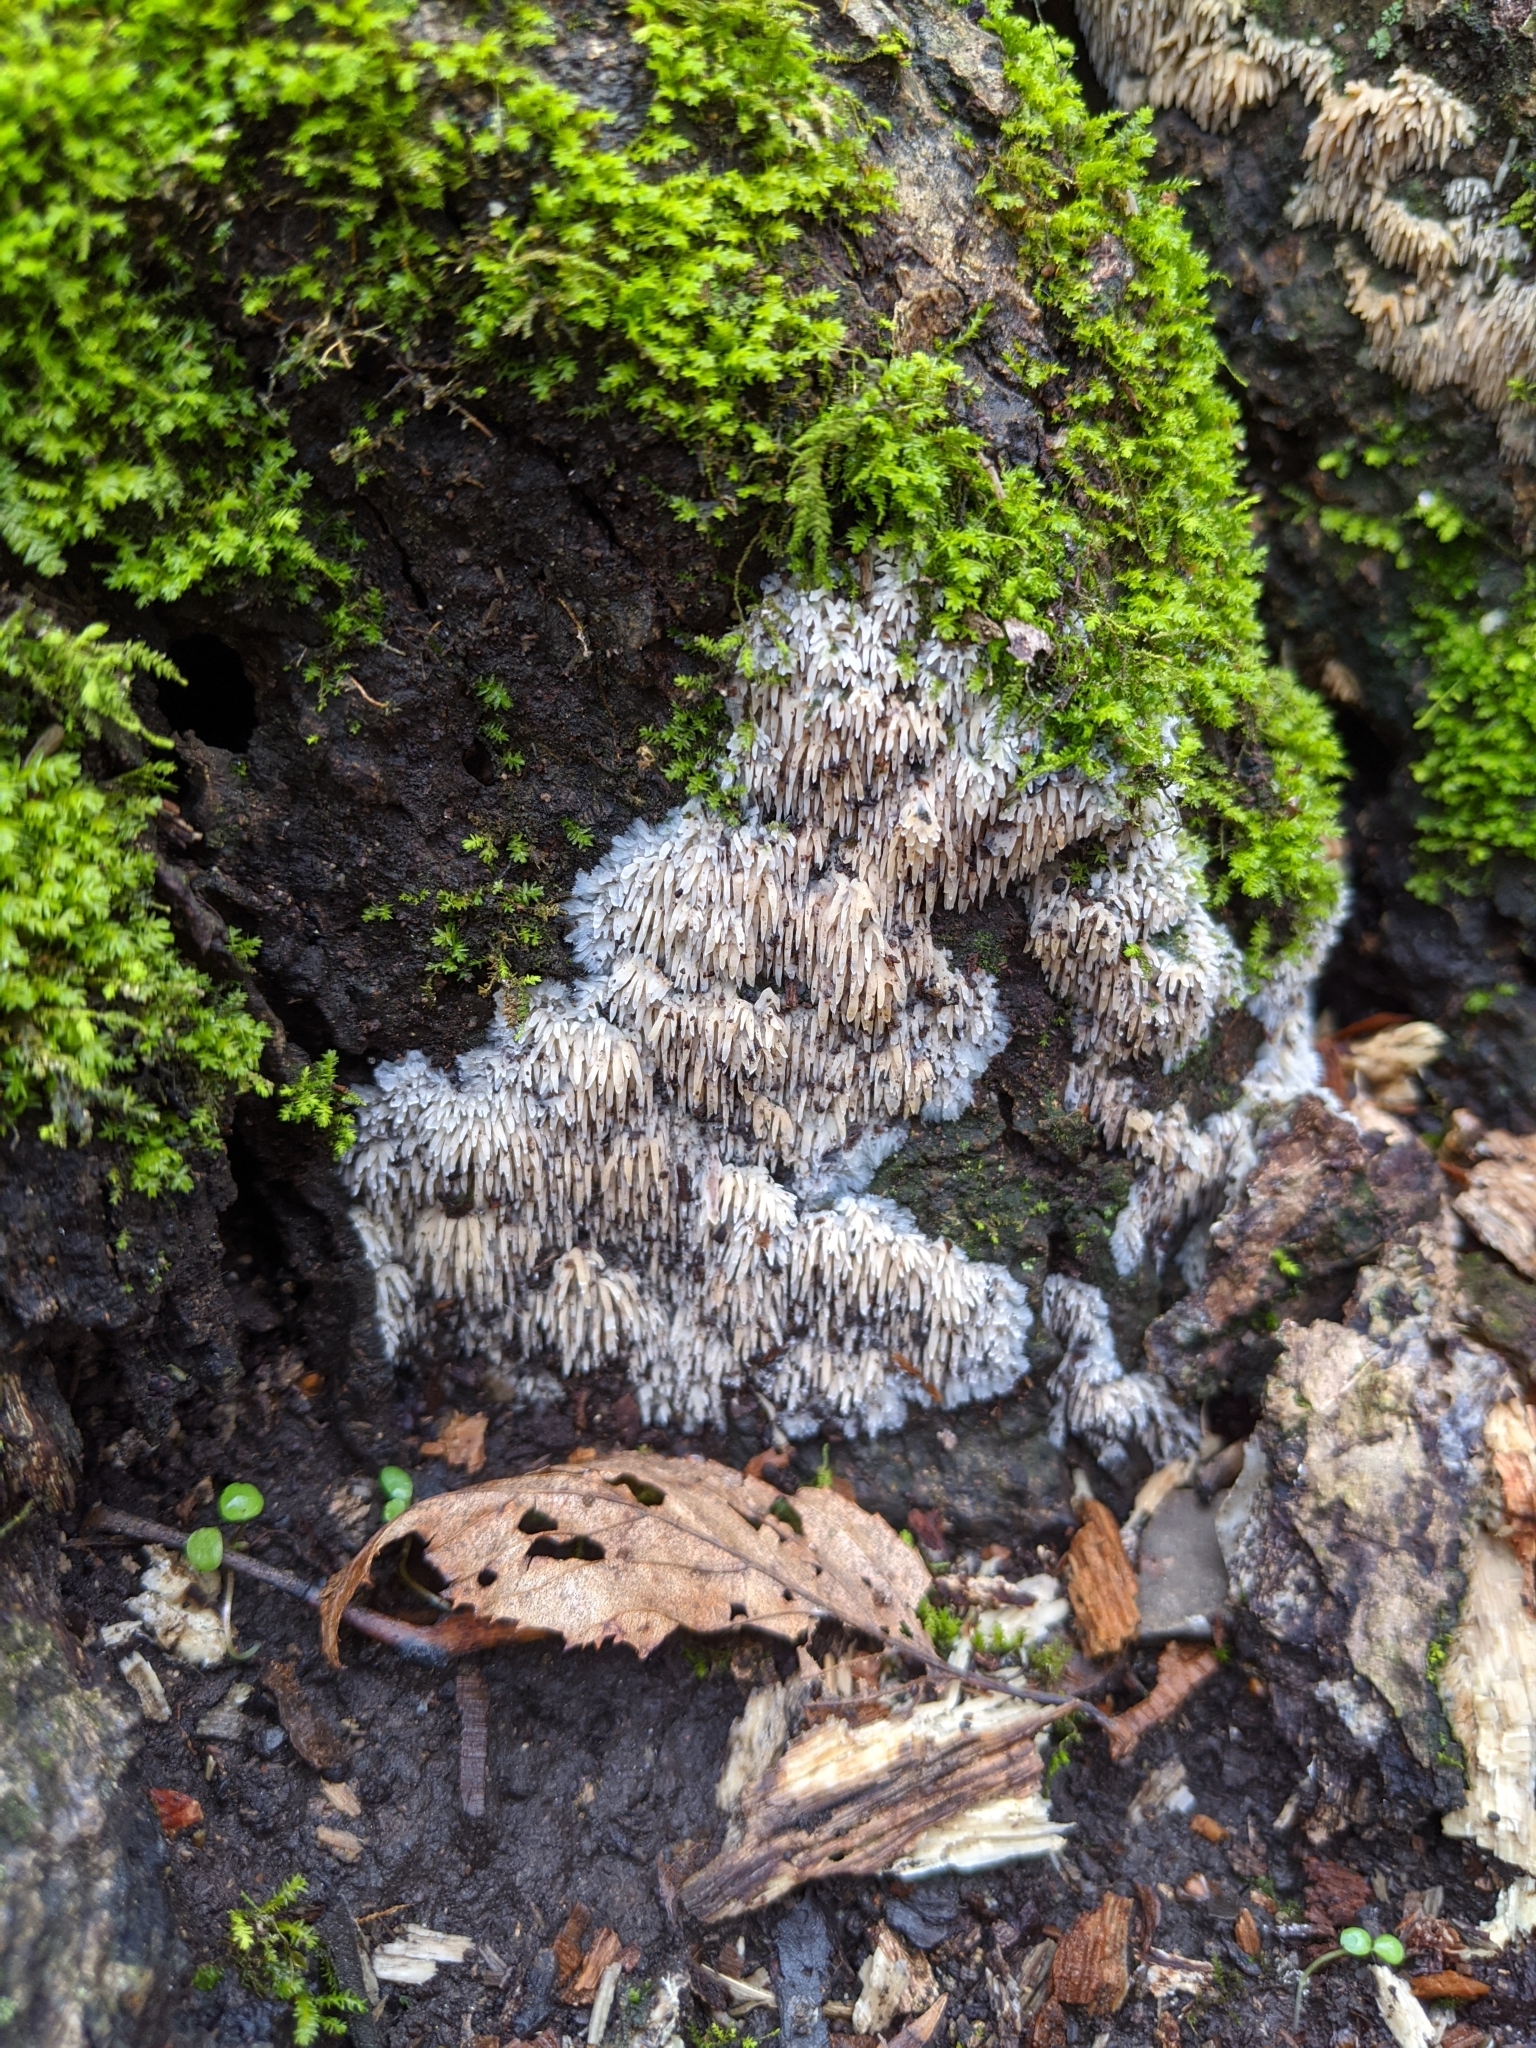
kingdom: Fungi
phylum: Basidiomycota
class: Agaricomycetes
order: Agaricales
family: Radulomycetaceae
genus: Radulomyces
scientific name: Radulomyces copelandii
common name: Asian beauty
